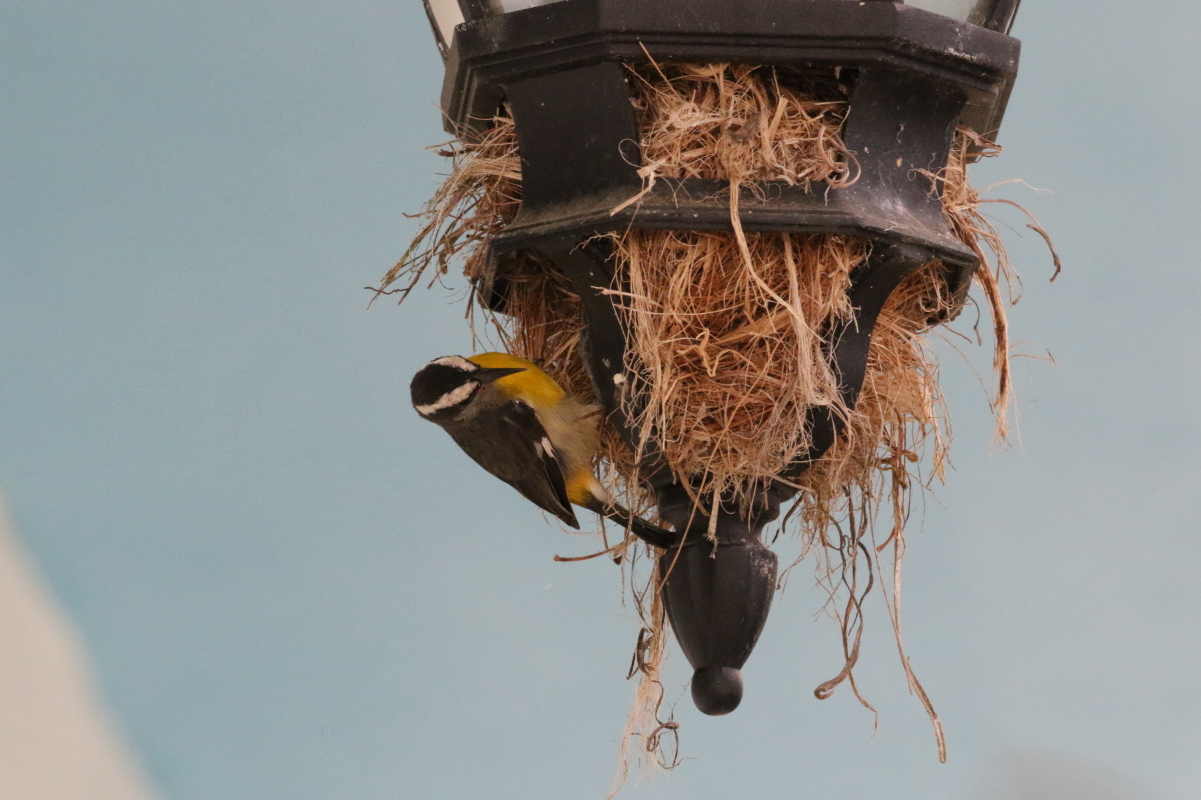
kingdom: Animalia
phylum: Chordata
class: Aves
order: Passeriformes
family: Thraupidae
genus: Coereba
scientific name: Coereba flaveola
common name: Bananaquit
